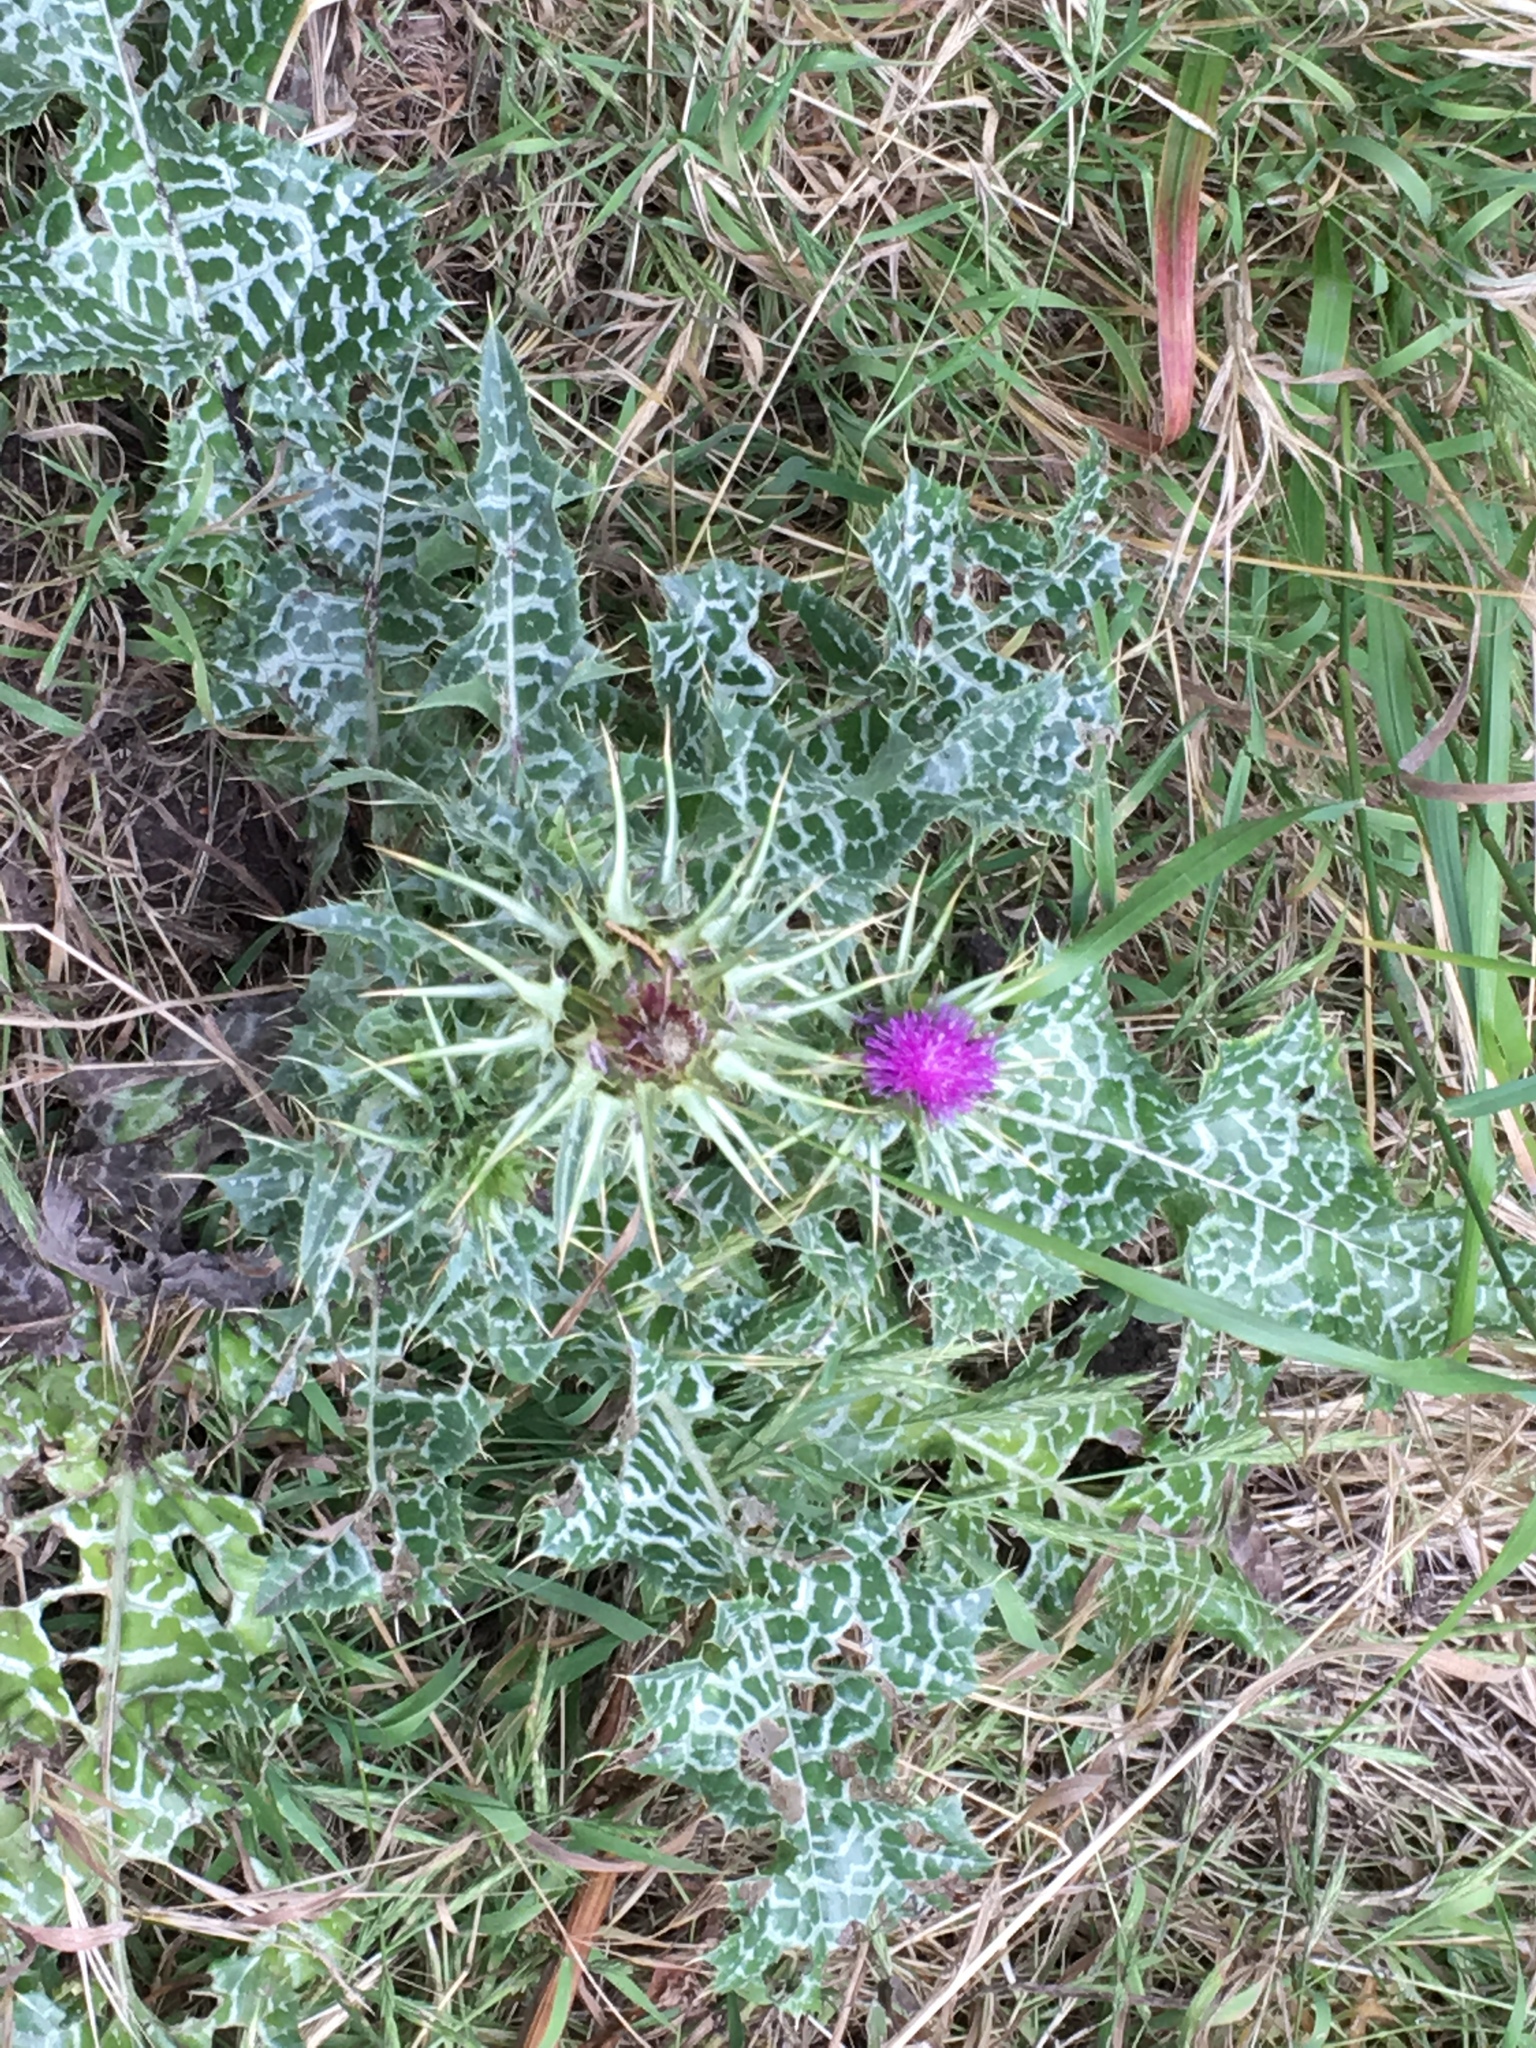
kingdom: Plantae
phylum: Tracheophyta
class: Magnoliopsida
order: Asterales
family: Asteraceae
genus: Silybum
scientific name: Silybum marianum
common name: Milk thistle
